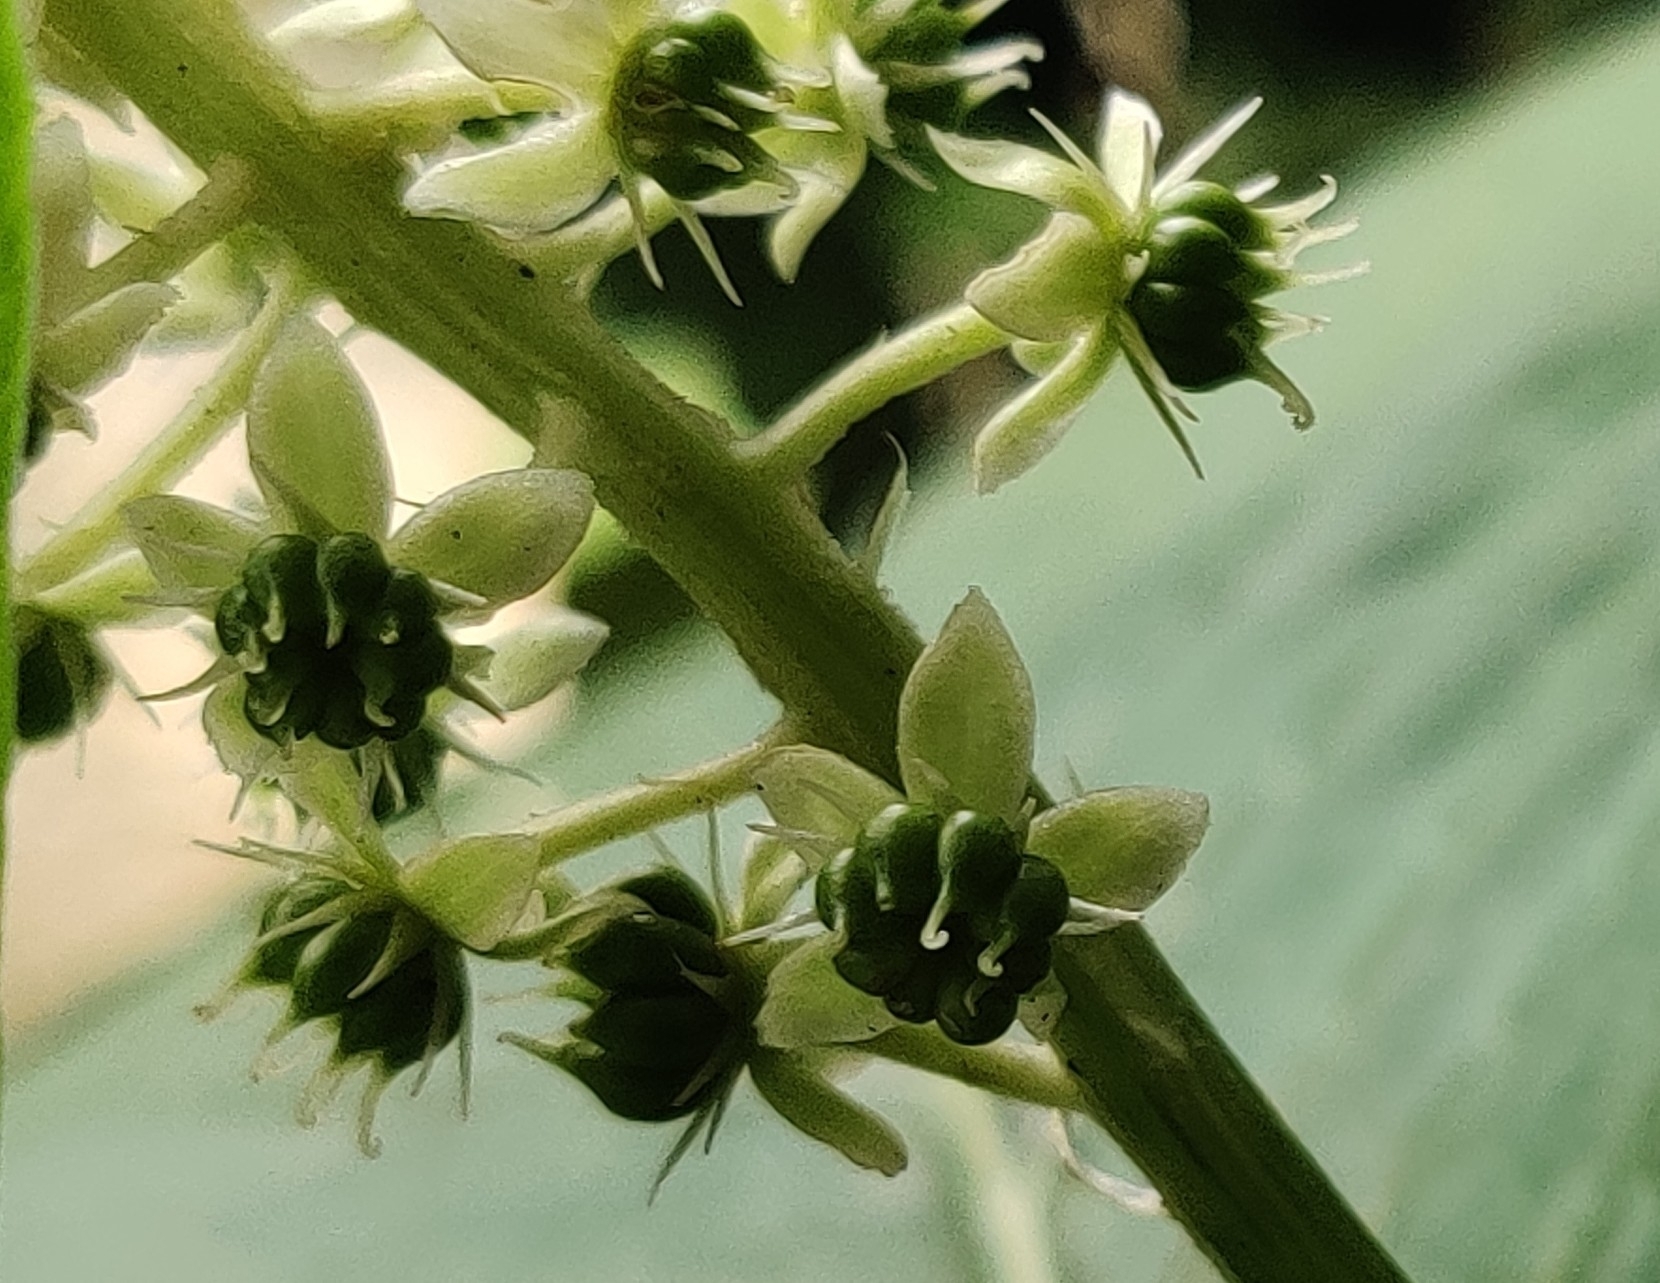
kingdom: Plantae
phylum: Tracheophyta
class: Magnoliopsida
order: Caryophyllales
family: Phytolaccaceae
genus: Phytolacca
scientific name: Phytolacca acinosa
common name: Indian pokeweed
